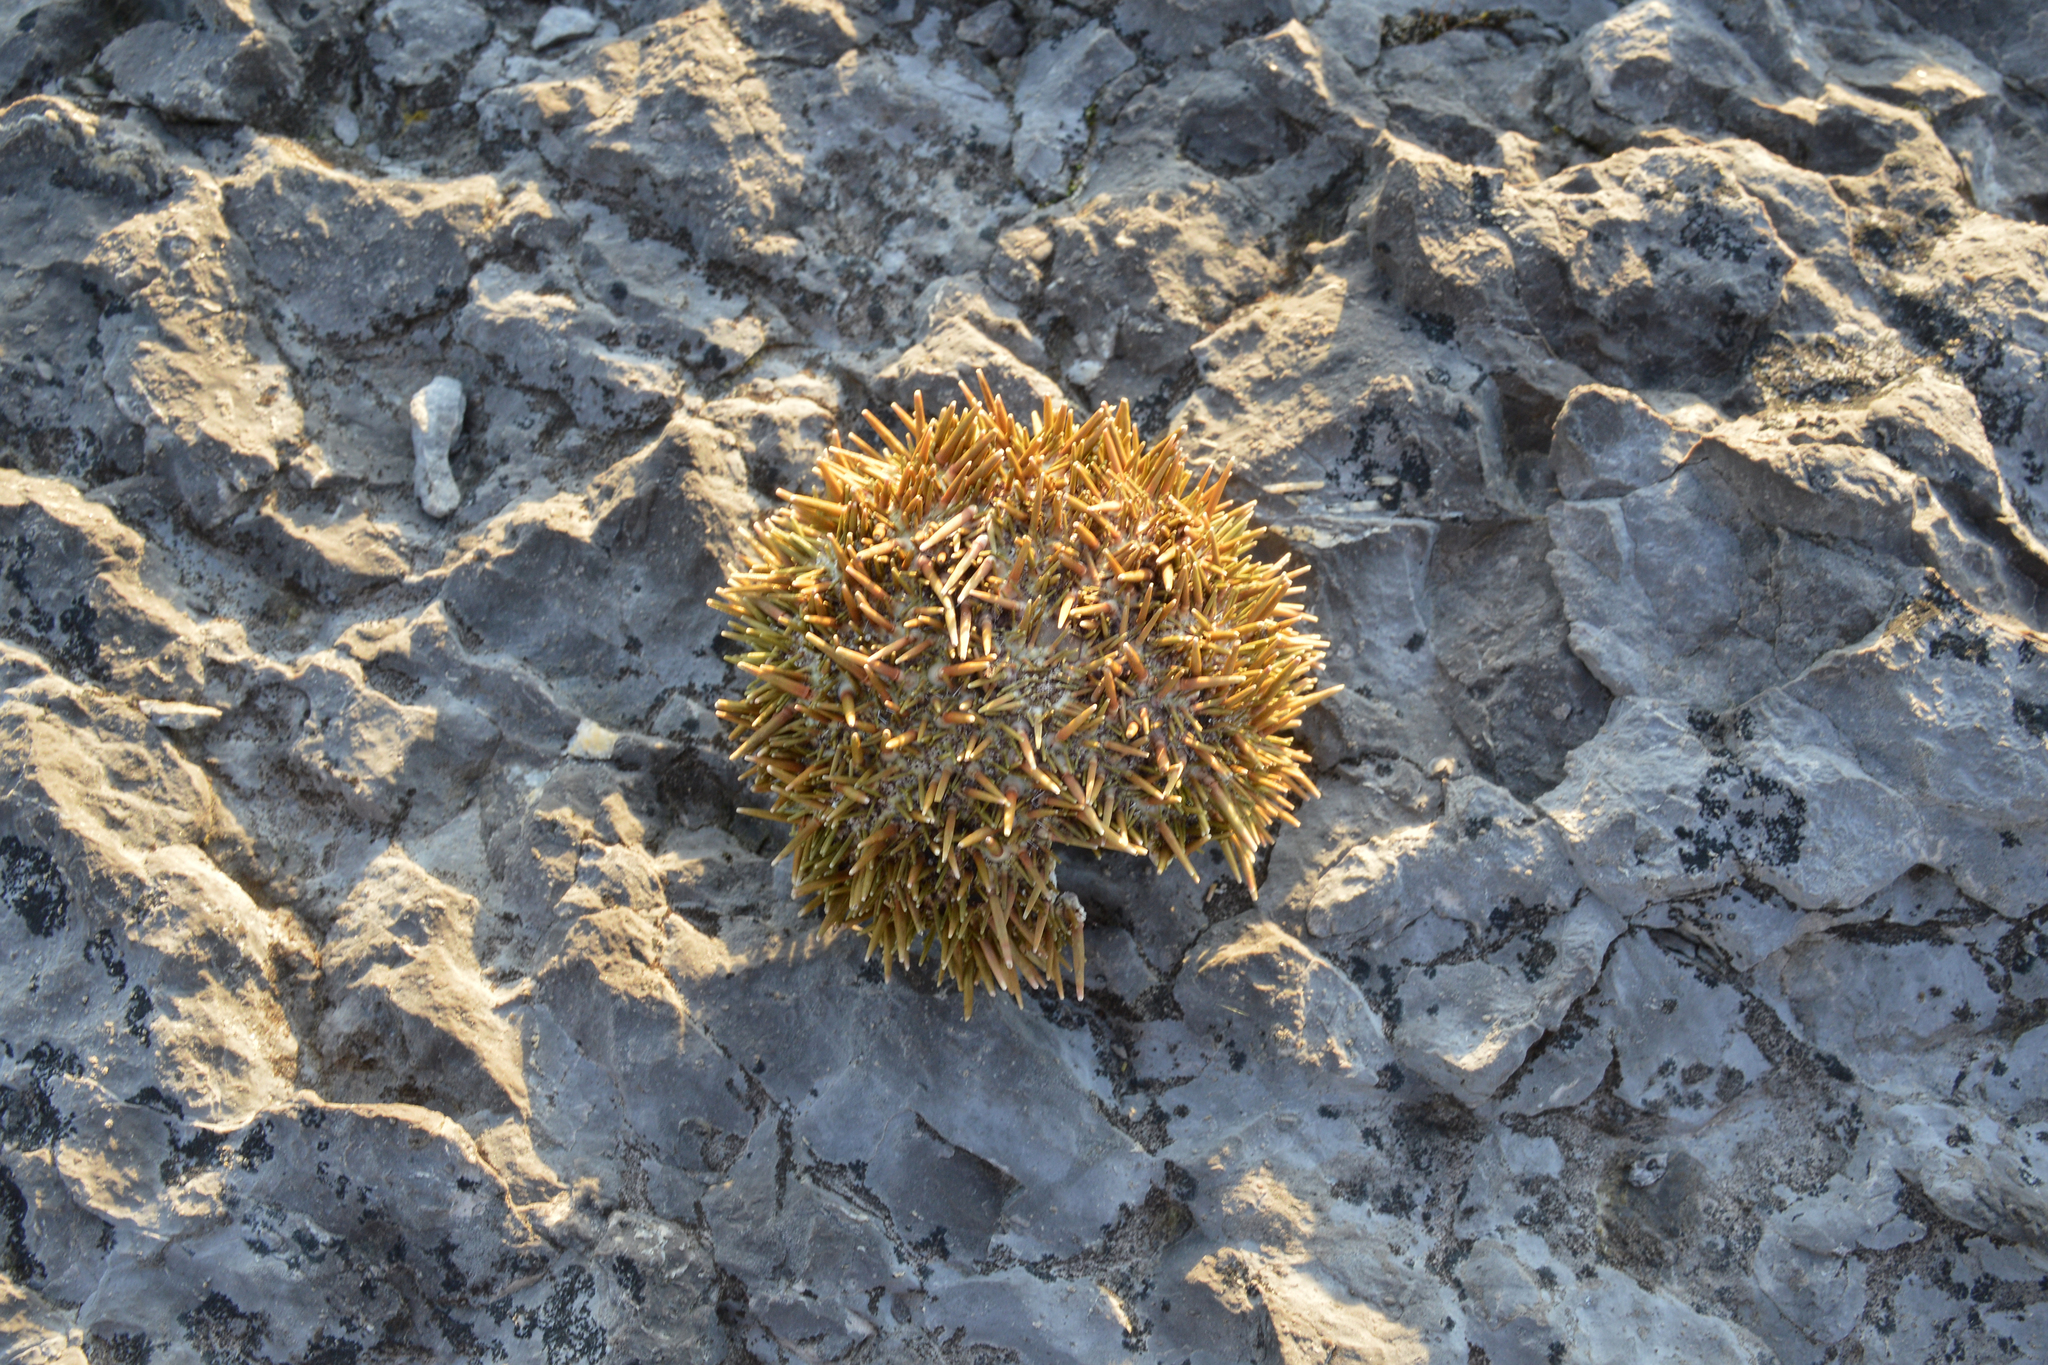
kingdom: Animalia
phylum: Echinodermata
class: Echinoidea
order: Camarodonta
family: Strongylocentrotidae
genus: Strongylocentrotus
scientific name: Strongylocentrotus droebachiensis
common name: Northern sea urchin
